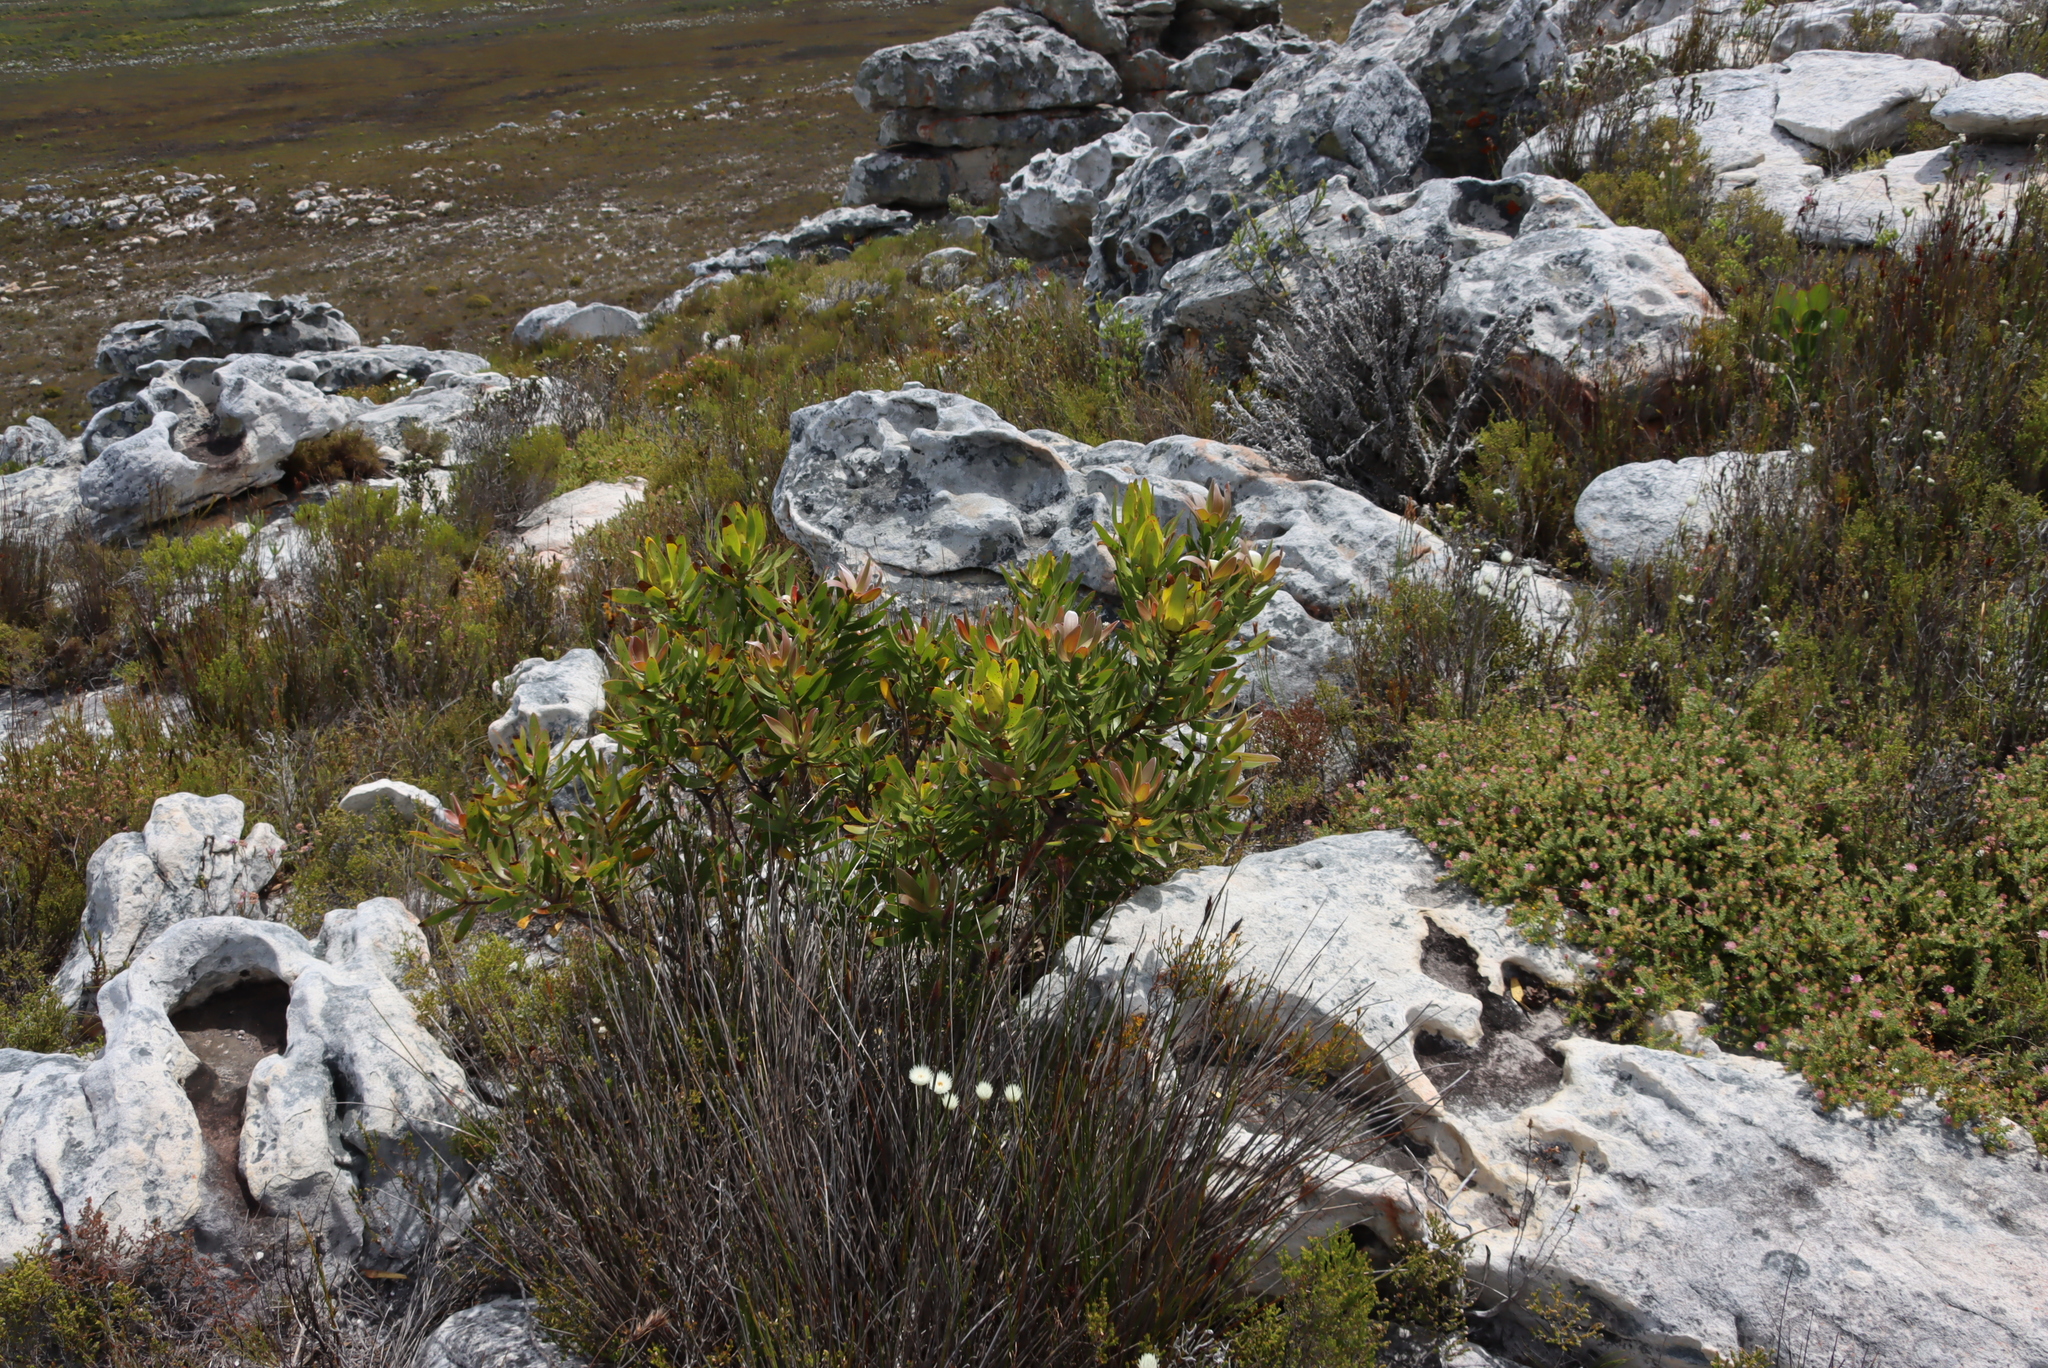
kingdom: Plantae
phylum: Tracheophyta
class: Magnoliopsida
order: Proteales
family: Proteaceae
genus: Leucadendron
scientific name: Leucadendron laureolum
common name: Golden sunshinebush
